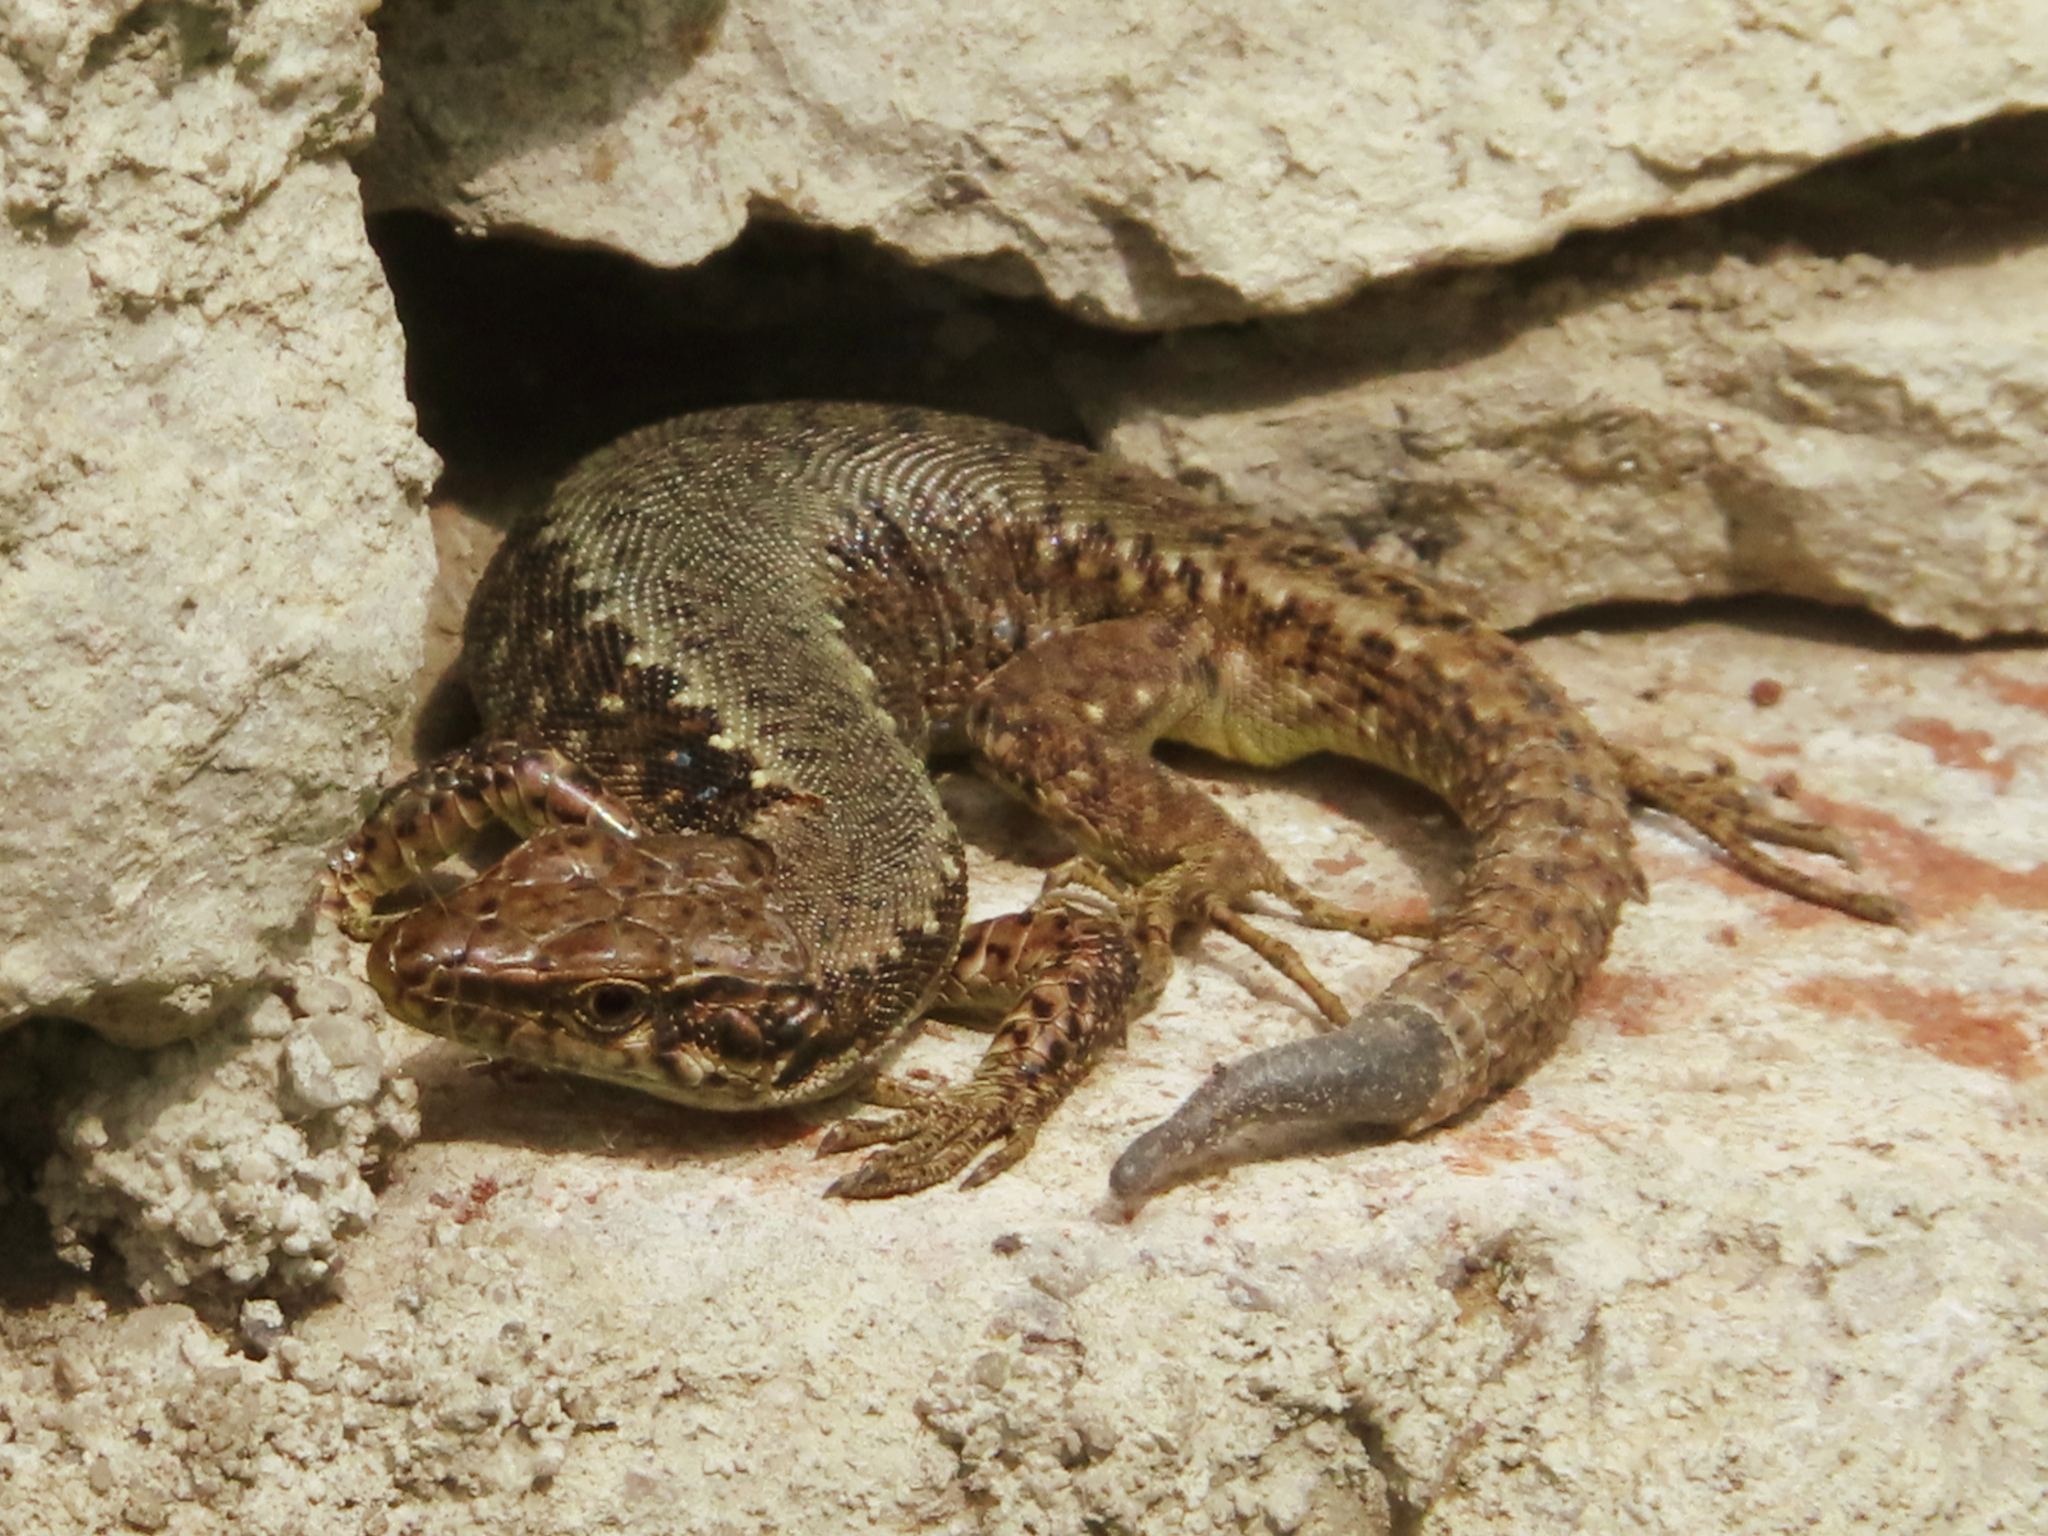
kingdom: Animalia
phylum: Chordata
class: Squamata
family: Lacertidae
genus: Darevskia
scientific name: Darevskia armeniaca
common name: Armenian lizard
